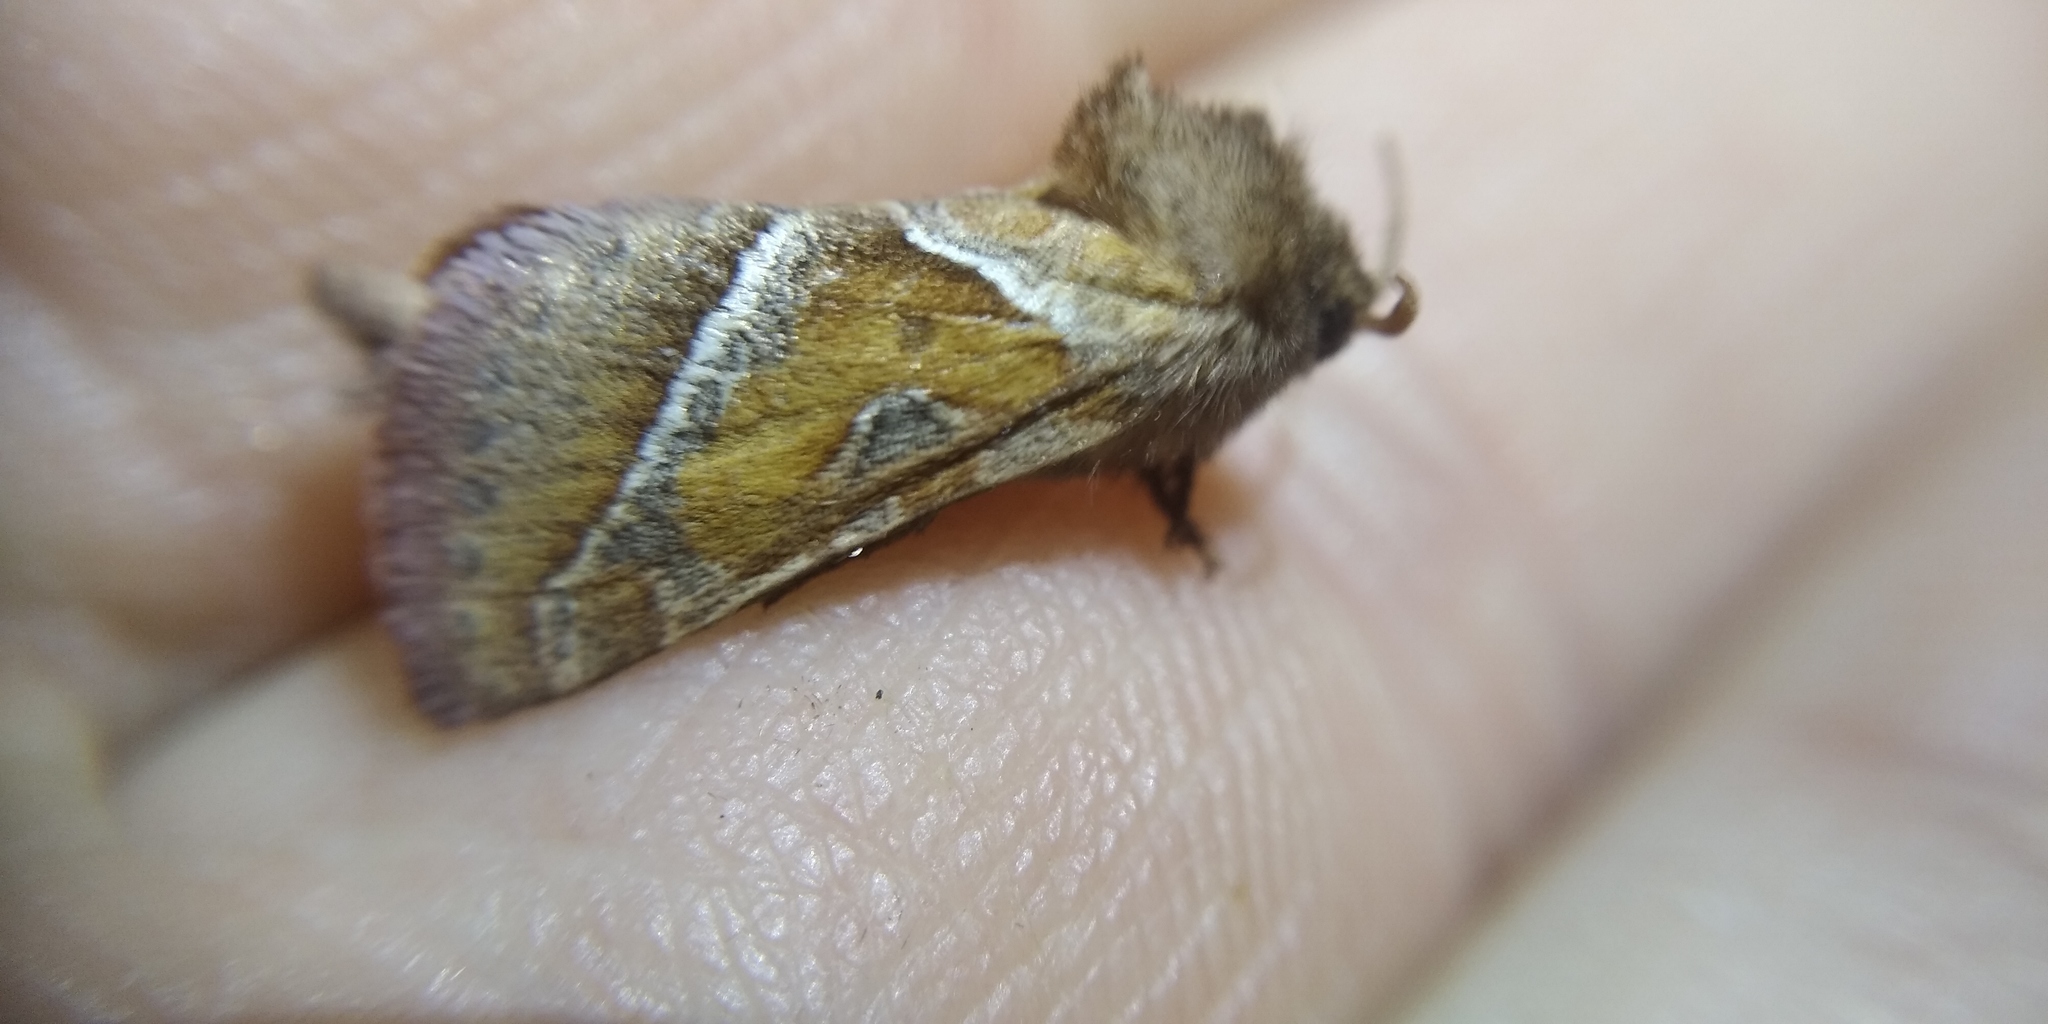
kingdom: Animalia
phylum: Arthropoda
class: Insecta
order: Lepidoptera
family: Hepialidae
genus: Triodia
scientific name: Triodia sylvina
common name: Orange swift
